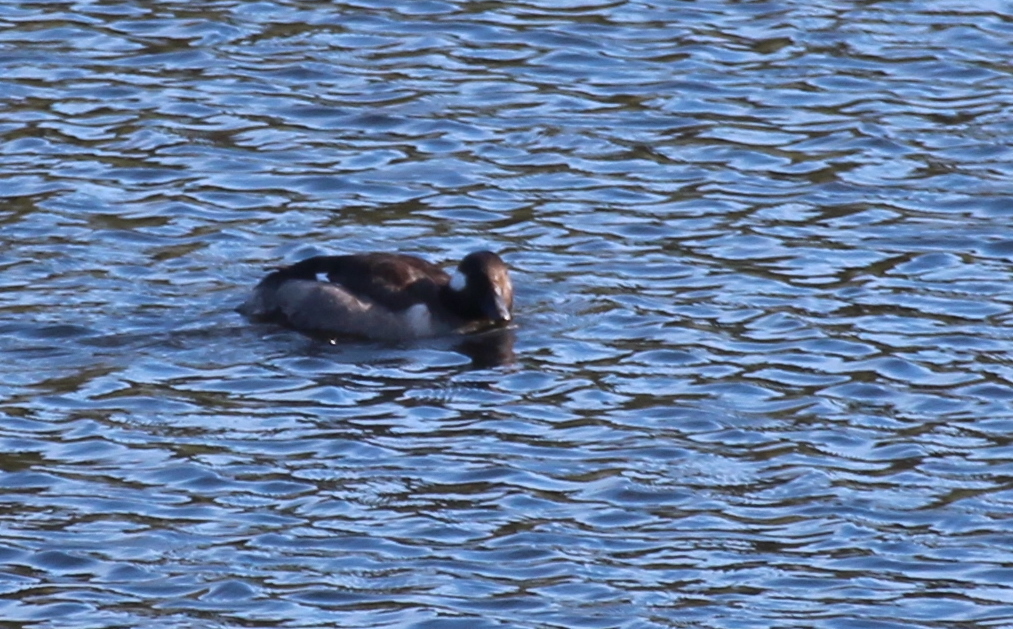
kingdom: Animalia
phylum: Chordata
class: Aves
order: Anseriformes
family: Anatidae
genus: Bucephala
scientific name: Bucephala albeola
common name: Bufflehead
